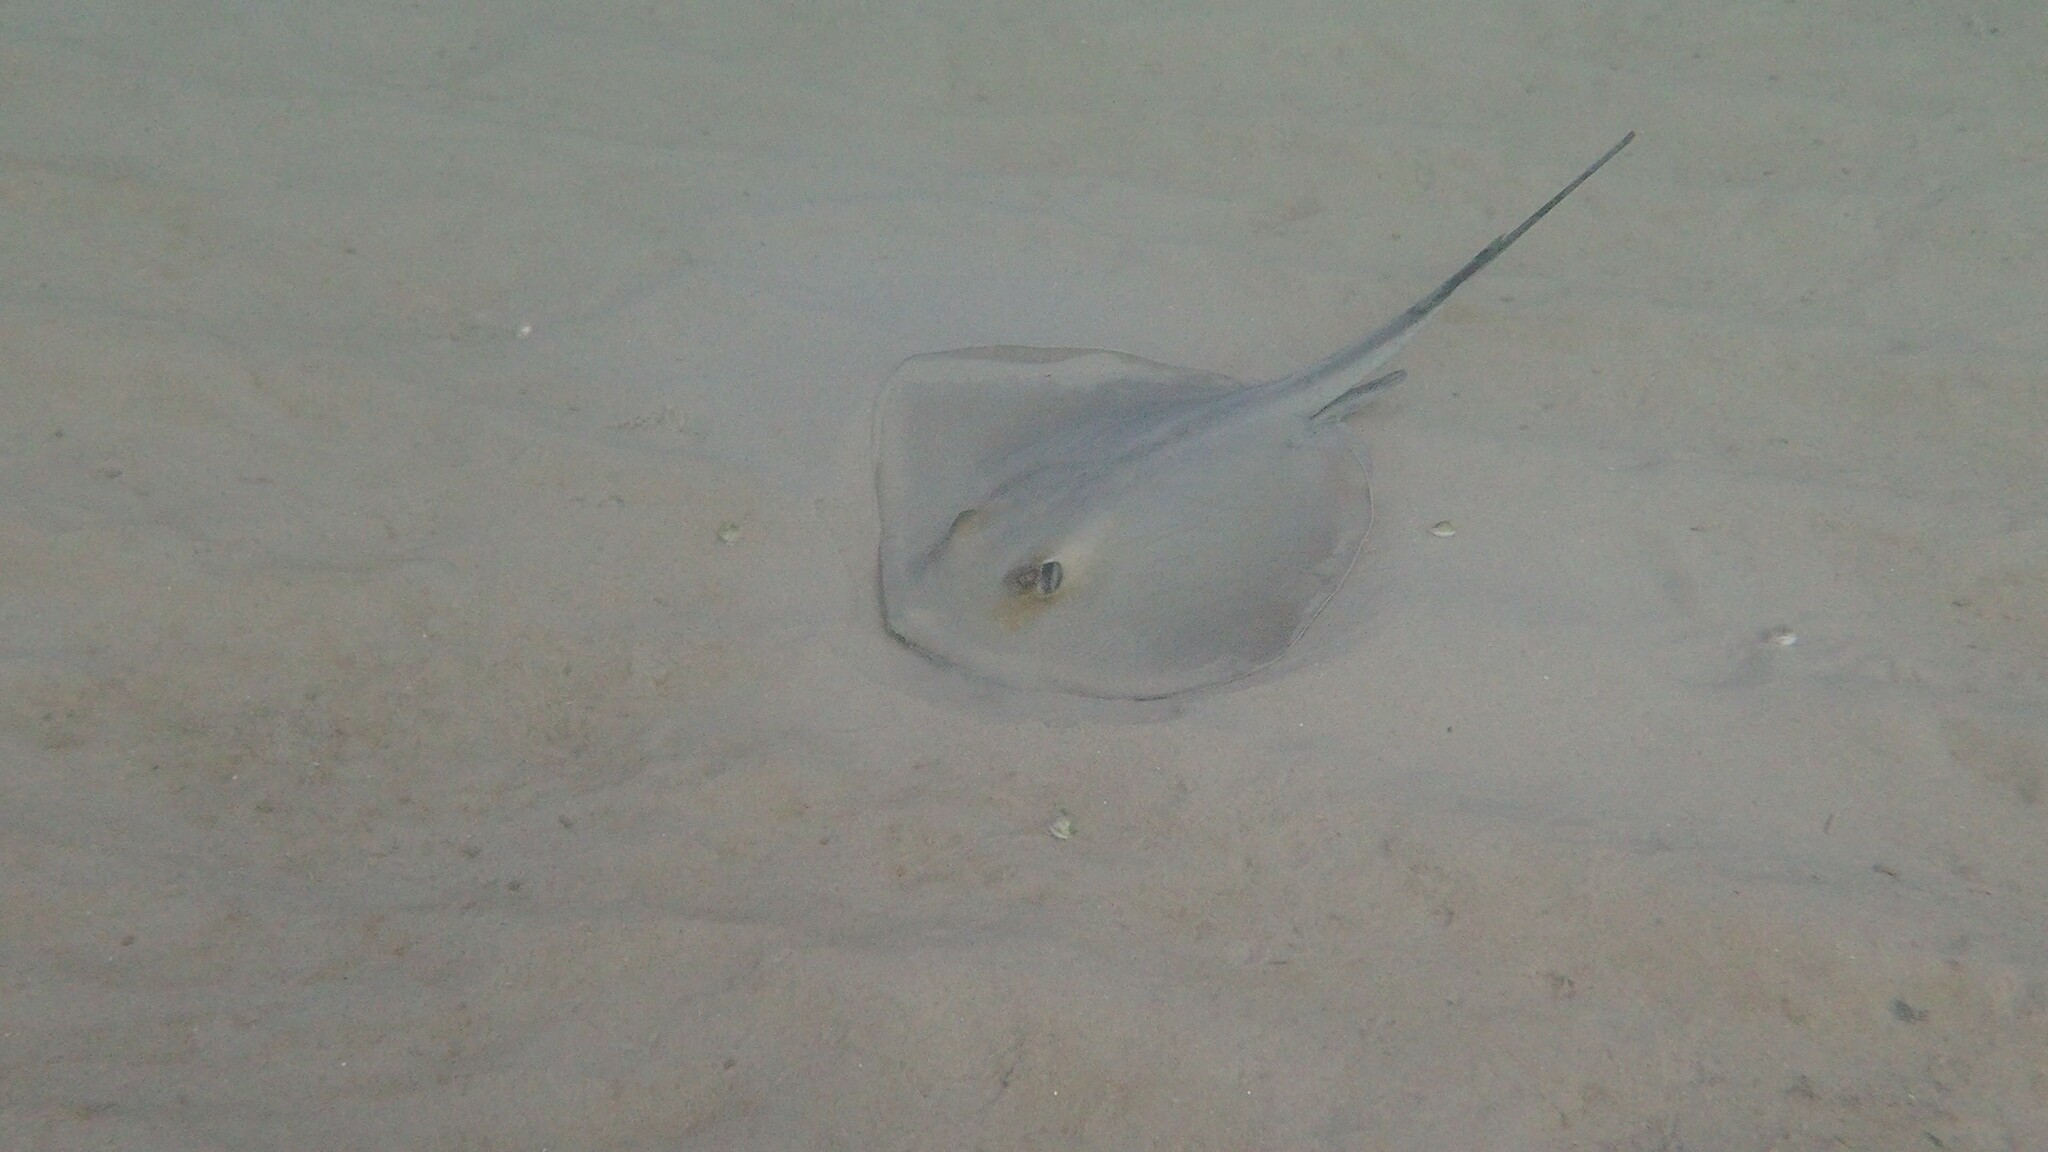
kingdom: Animalia
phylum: Chordata
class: Elasmobranchii
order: Myliobatiformes
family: Dasyatidae
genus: Dasyatis
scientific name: Dasyatis pastinaca
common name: Common stingray
